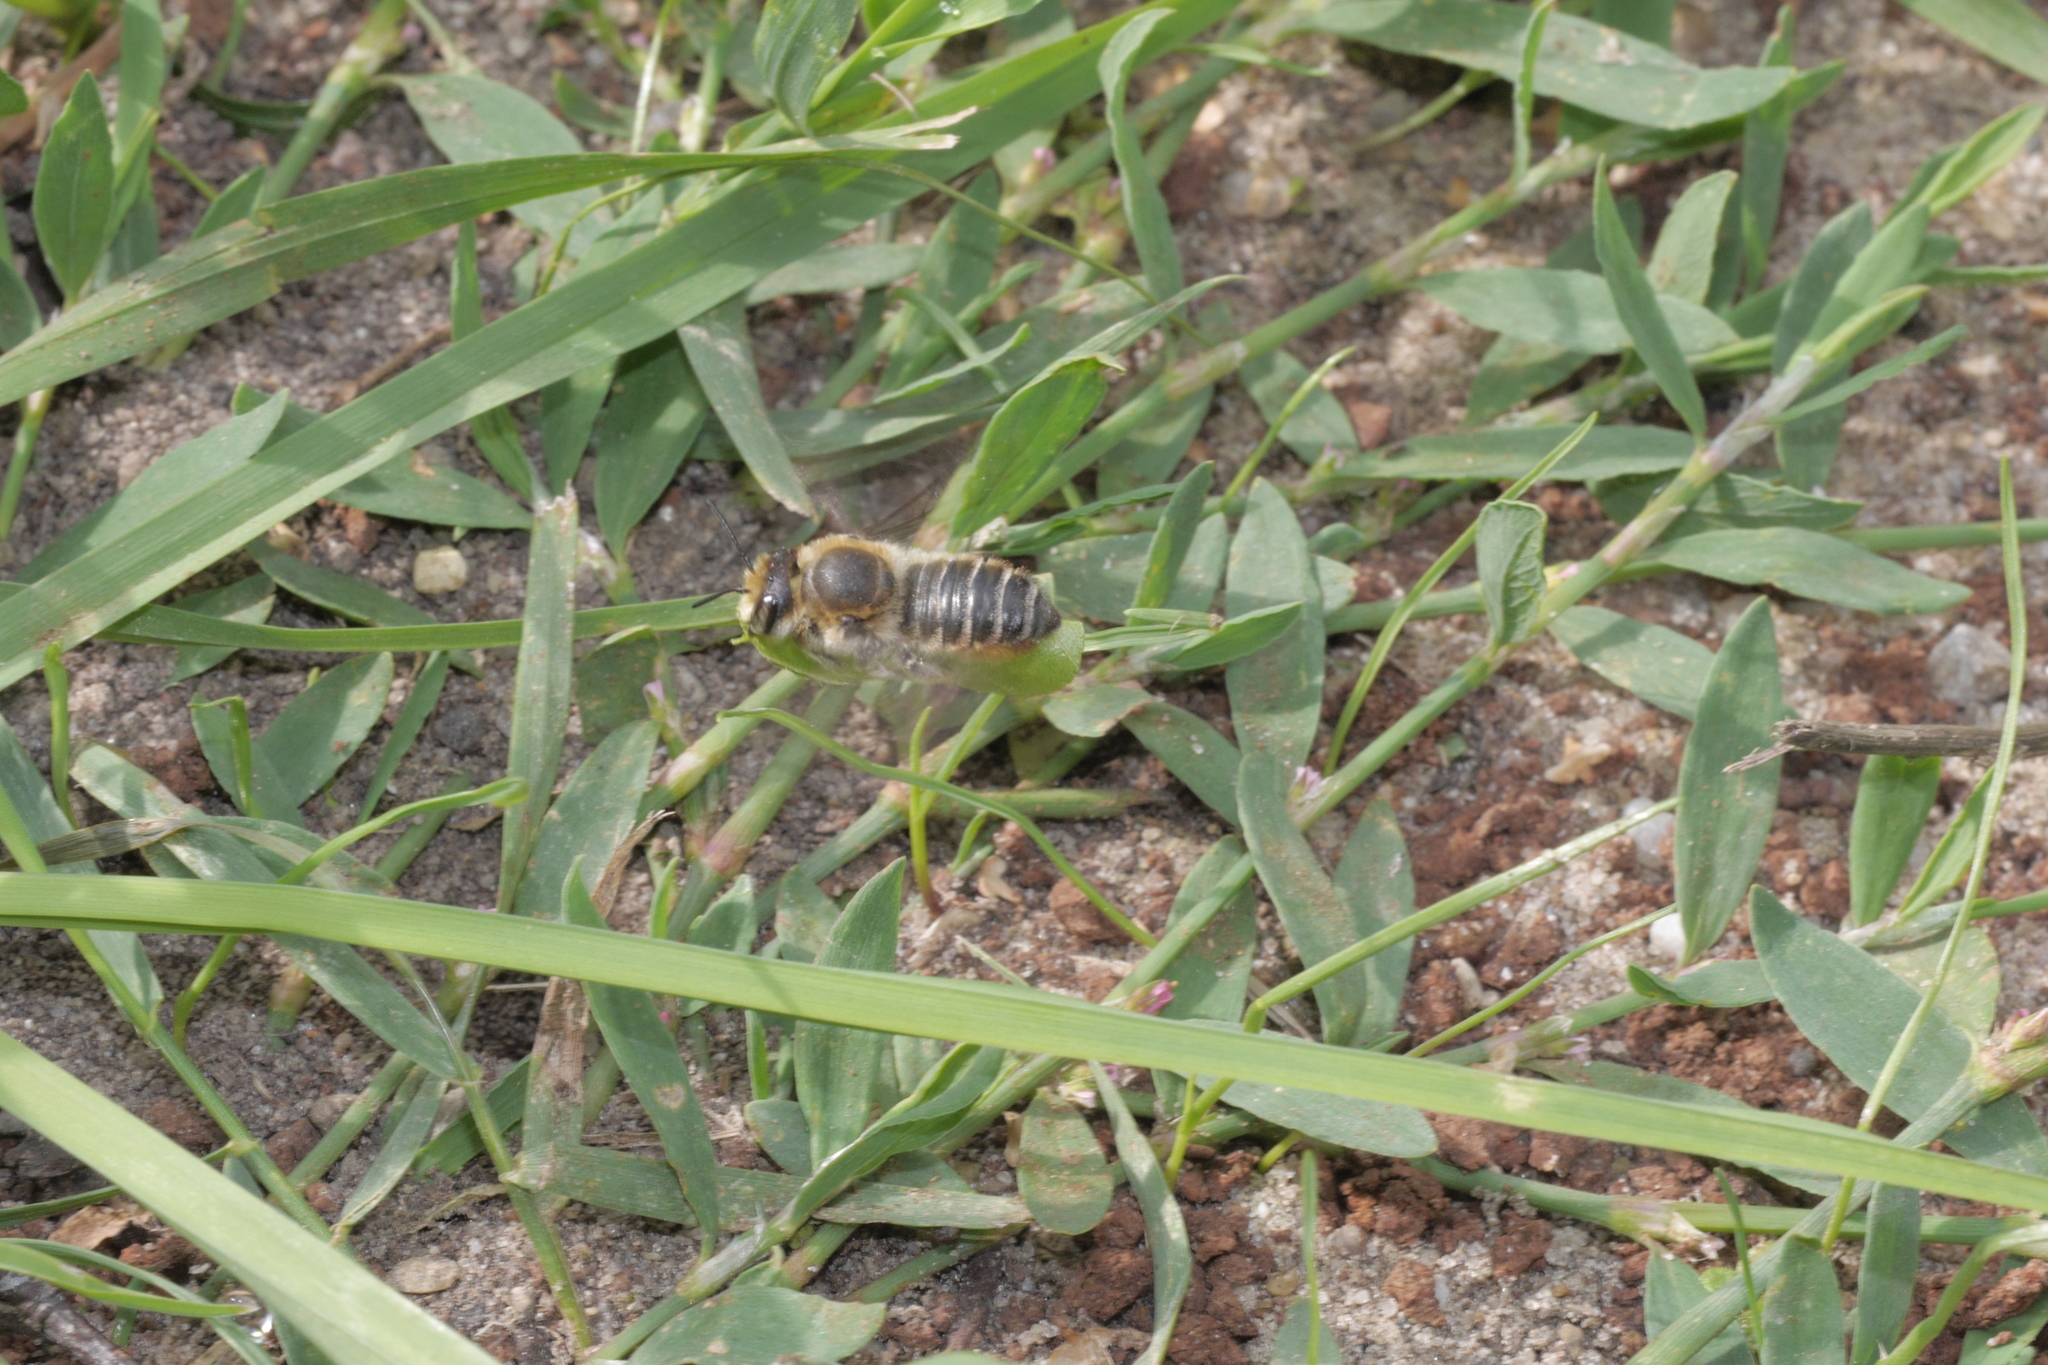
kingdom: Animalia
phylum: Arthropoda
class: Insecta
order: Hymenoptera
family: Megachilidae
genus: Megachile
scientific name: Megachile maritima
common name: Coastal leaf-cutter bee
